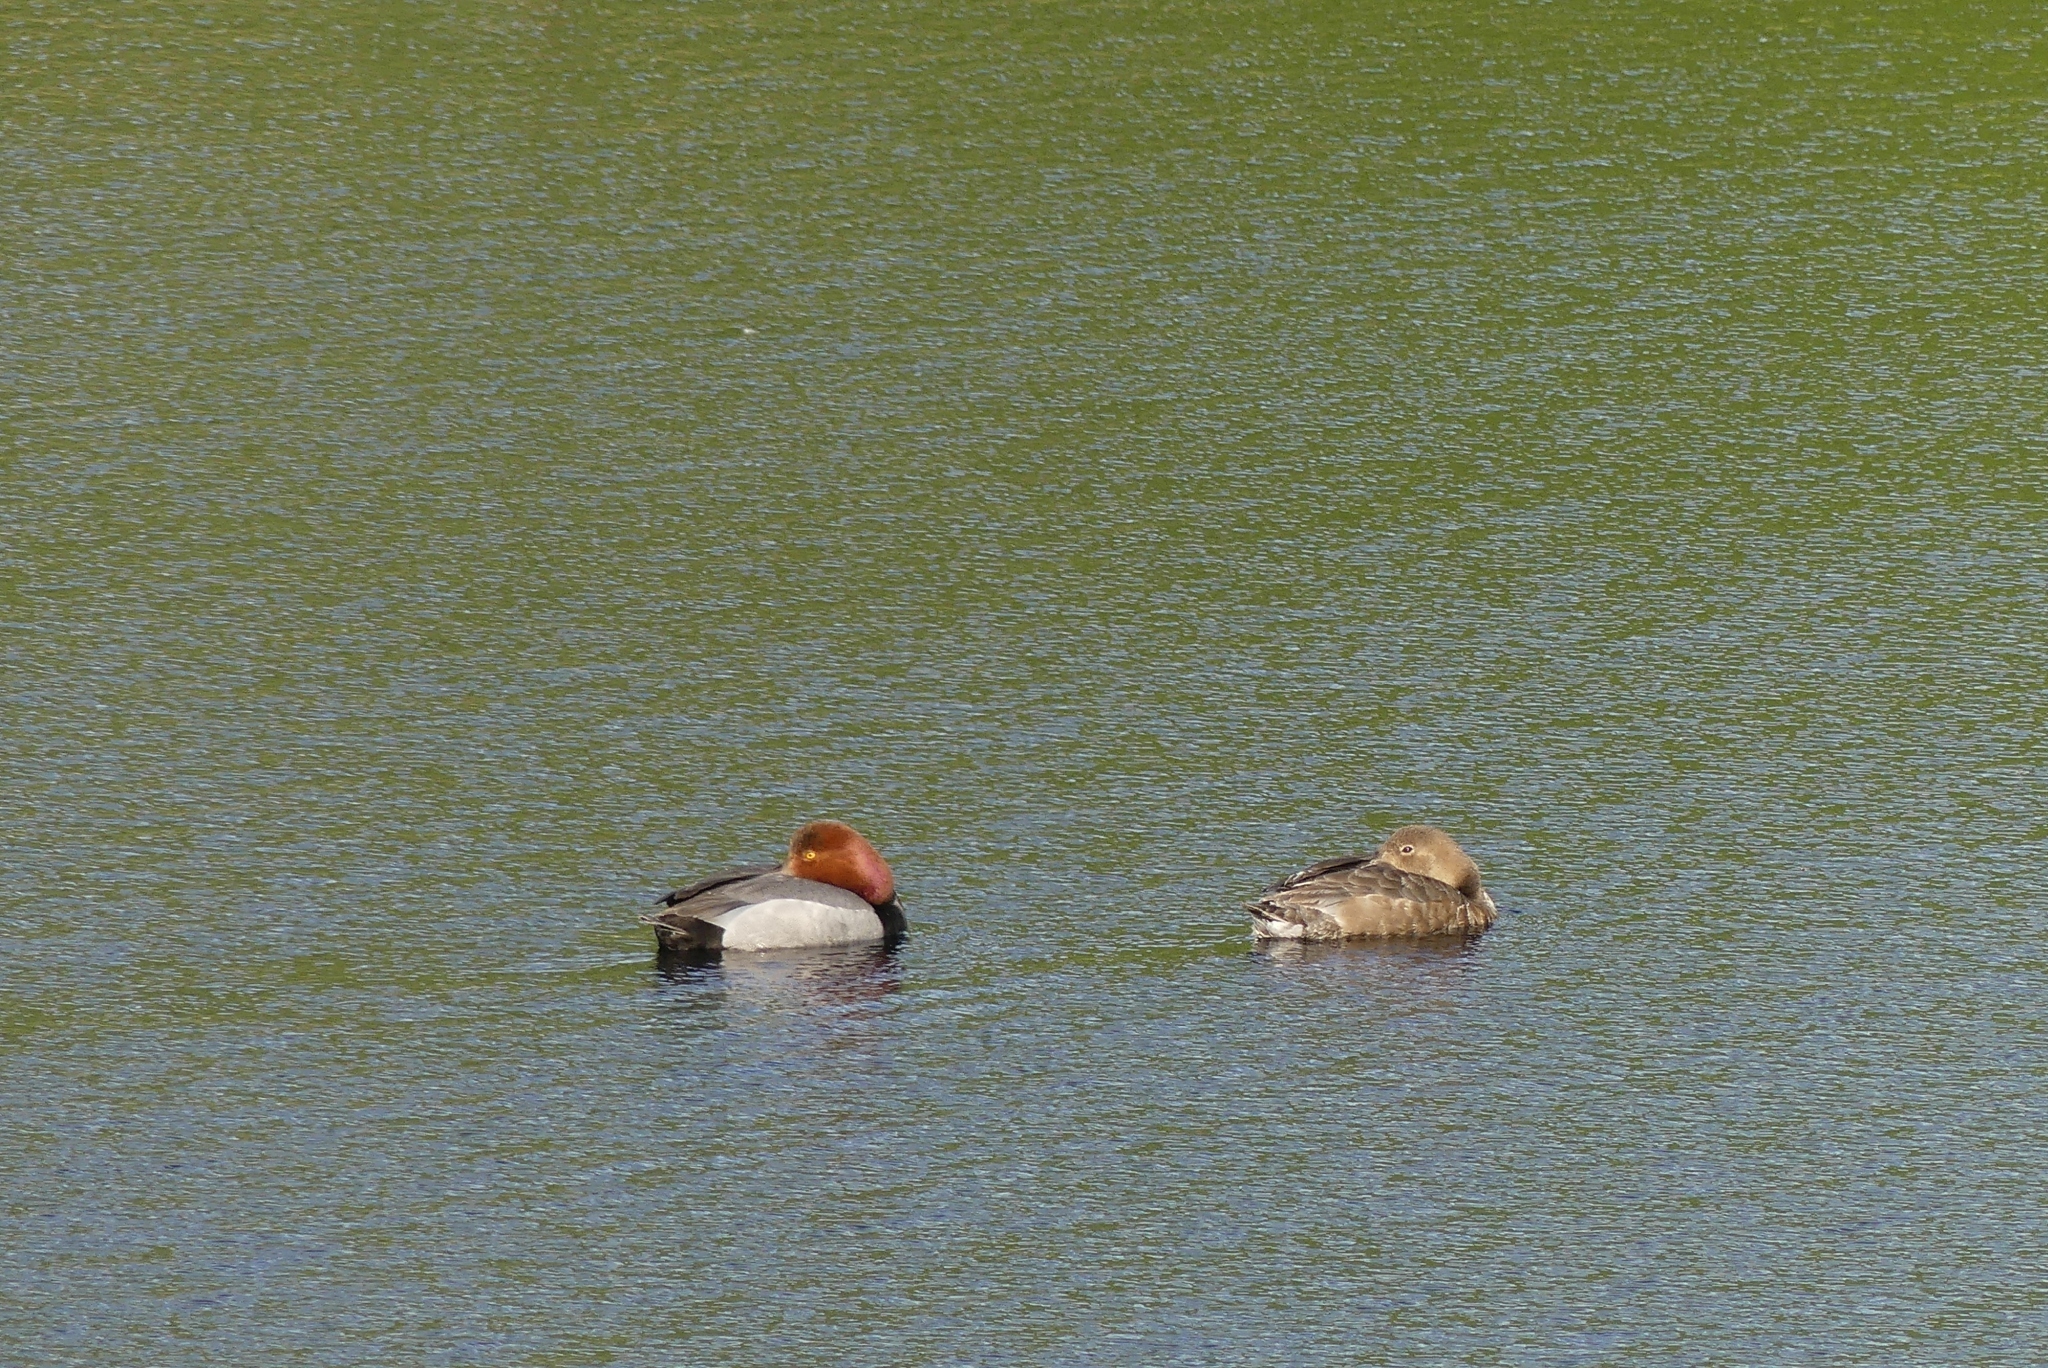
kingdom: Animalia
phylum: Chordata
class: Aves
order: Anseriformes
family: Anatidae
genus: Aythya
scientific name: Aythya americana
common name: Redhead
